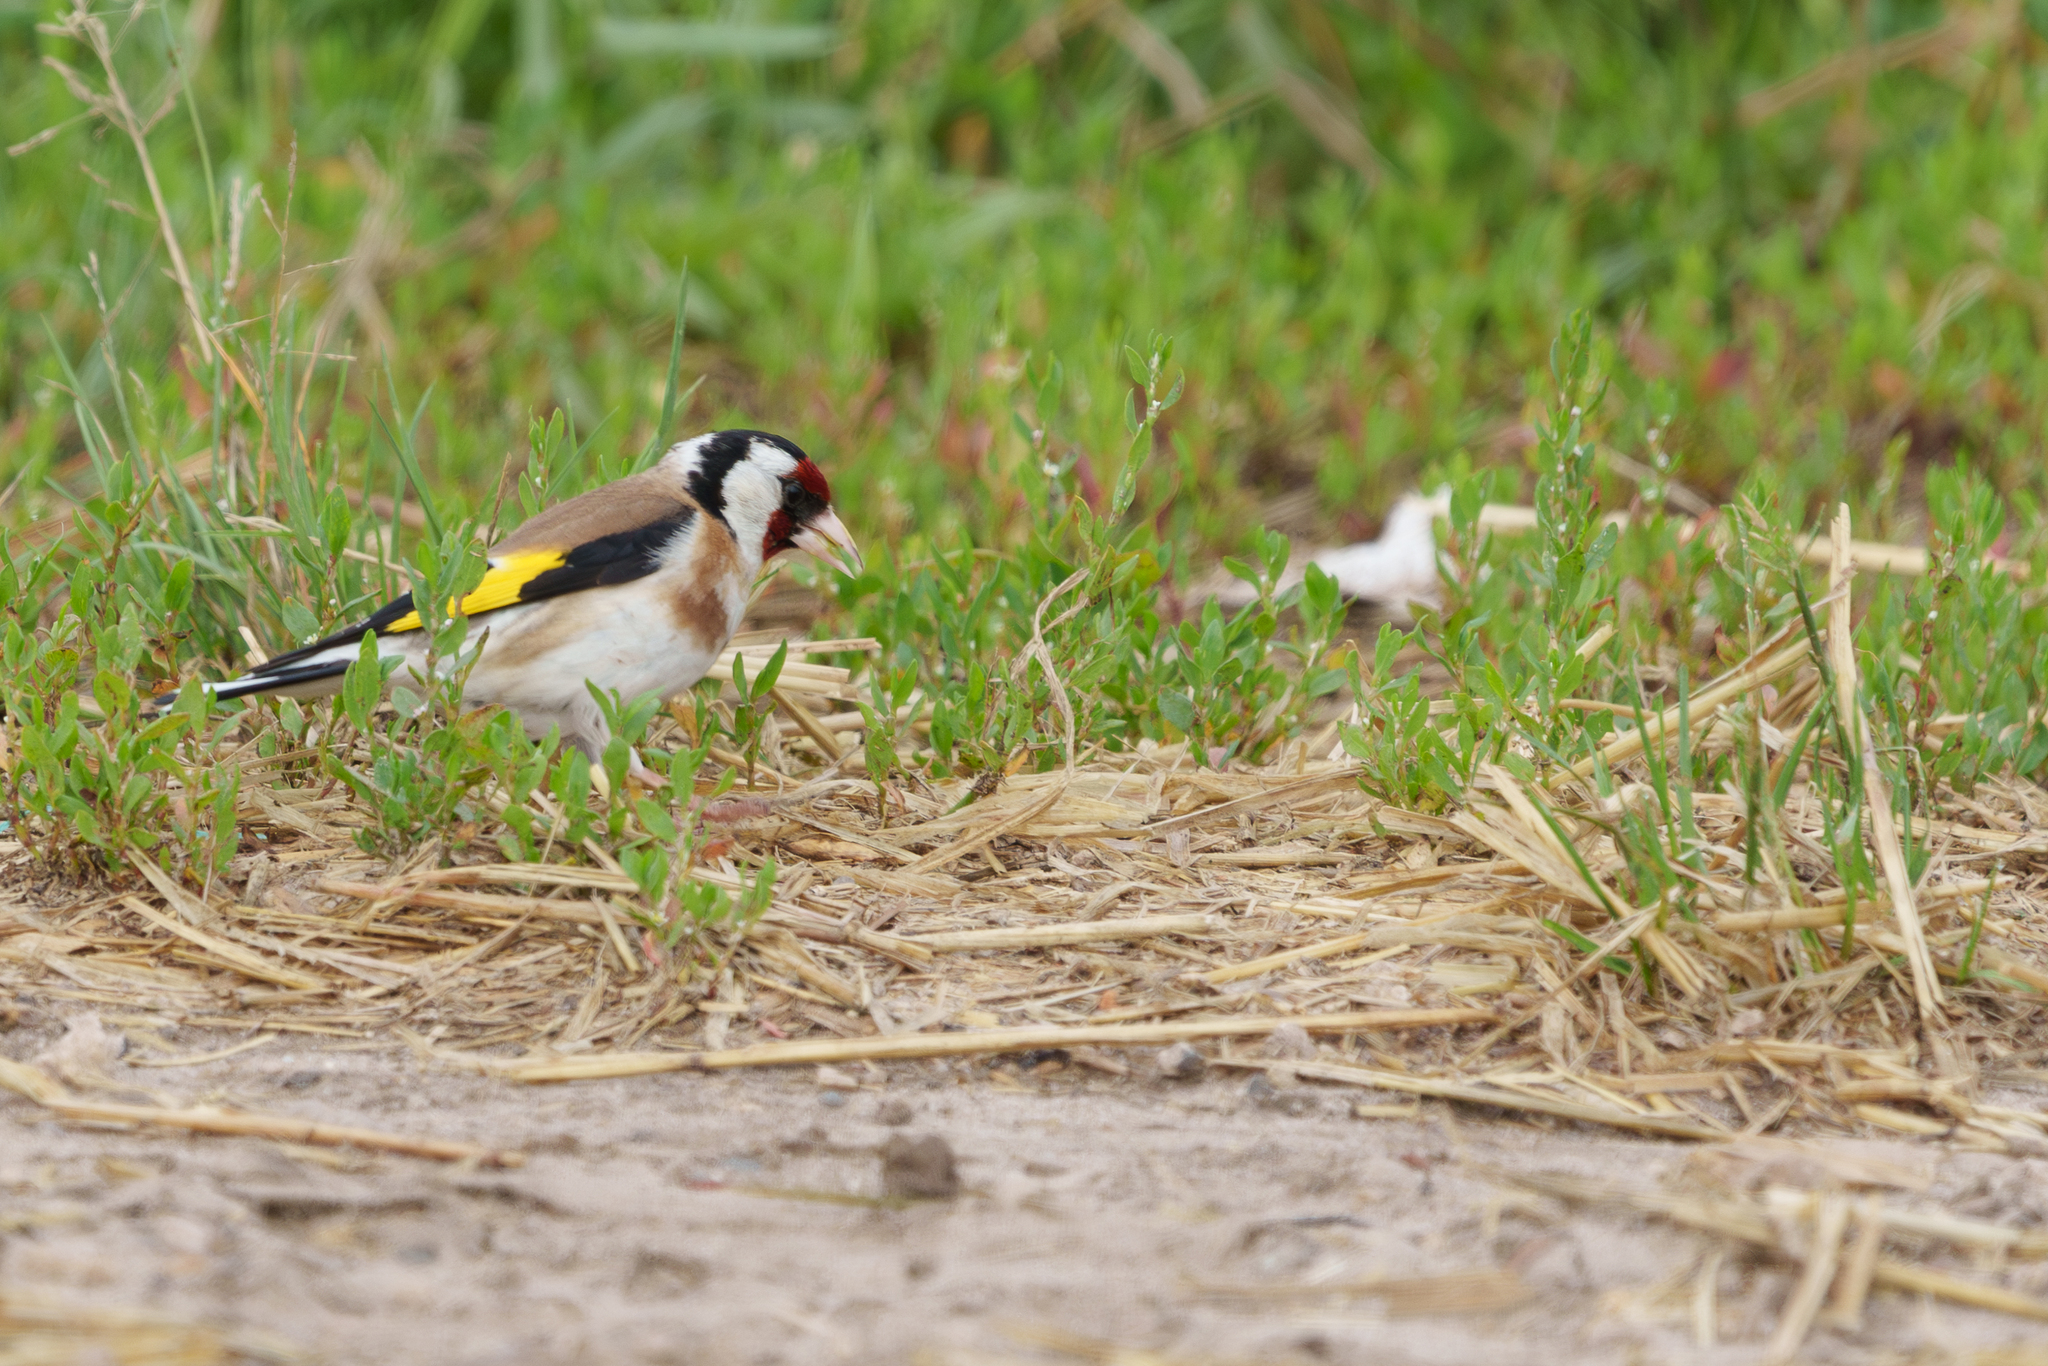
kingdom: Animalia
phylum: Chordata
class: Aves
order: Passeriformes
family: Fringillidae
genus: Carduelis
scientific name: Carduelis carduelis
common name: European goldfinch
